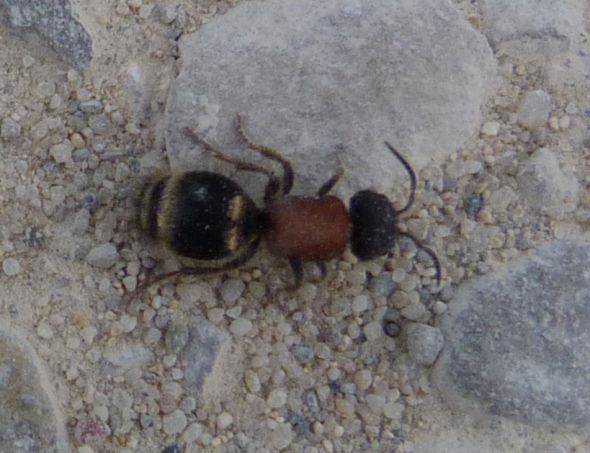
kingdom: Animalia
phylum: Arthropoda
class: Insecta
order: Hymenoptera
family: Mutillidae
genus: Tropidotilla
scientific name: Tropidotilla litoralis
